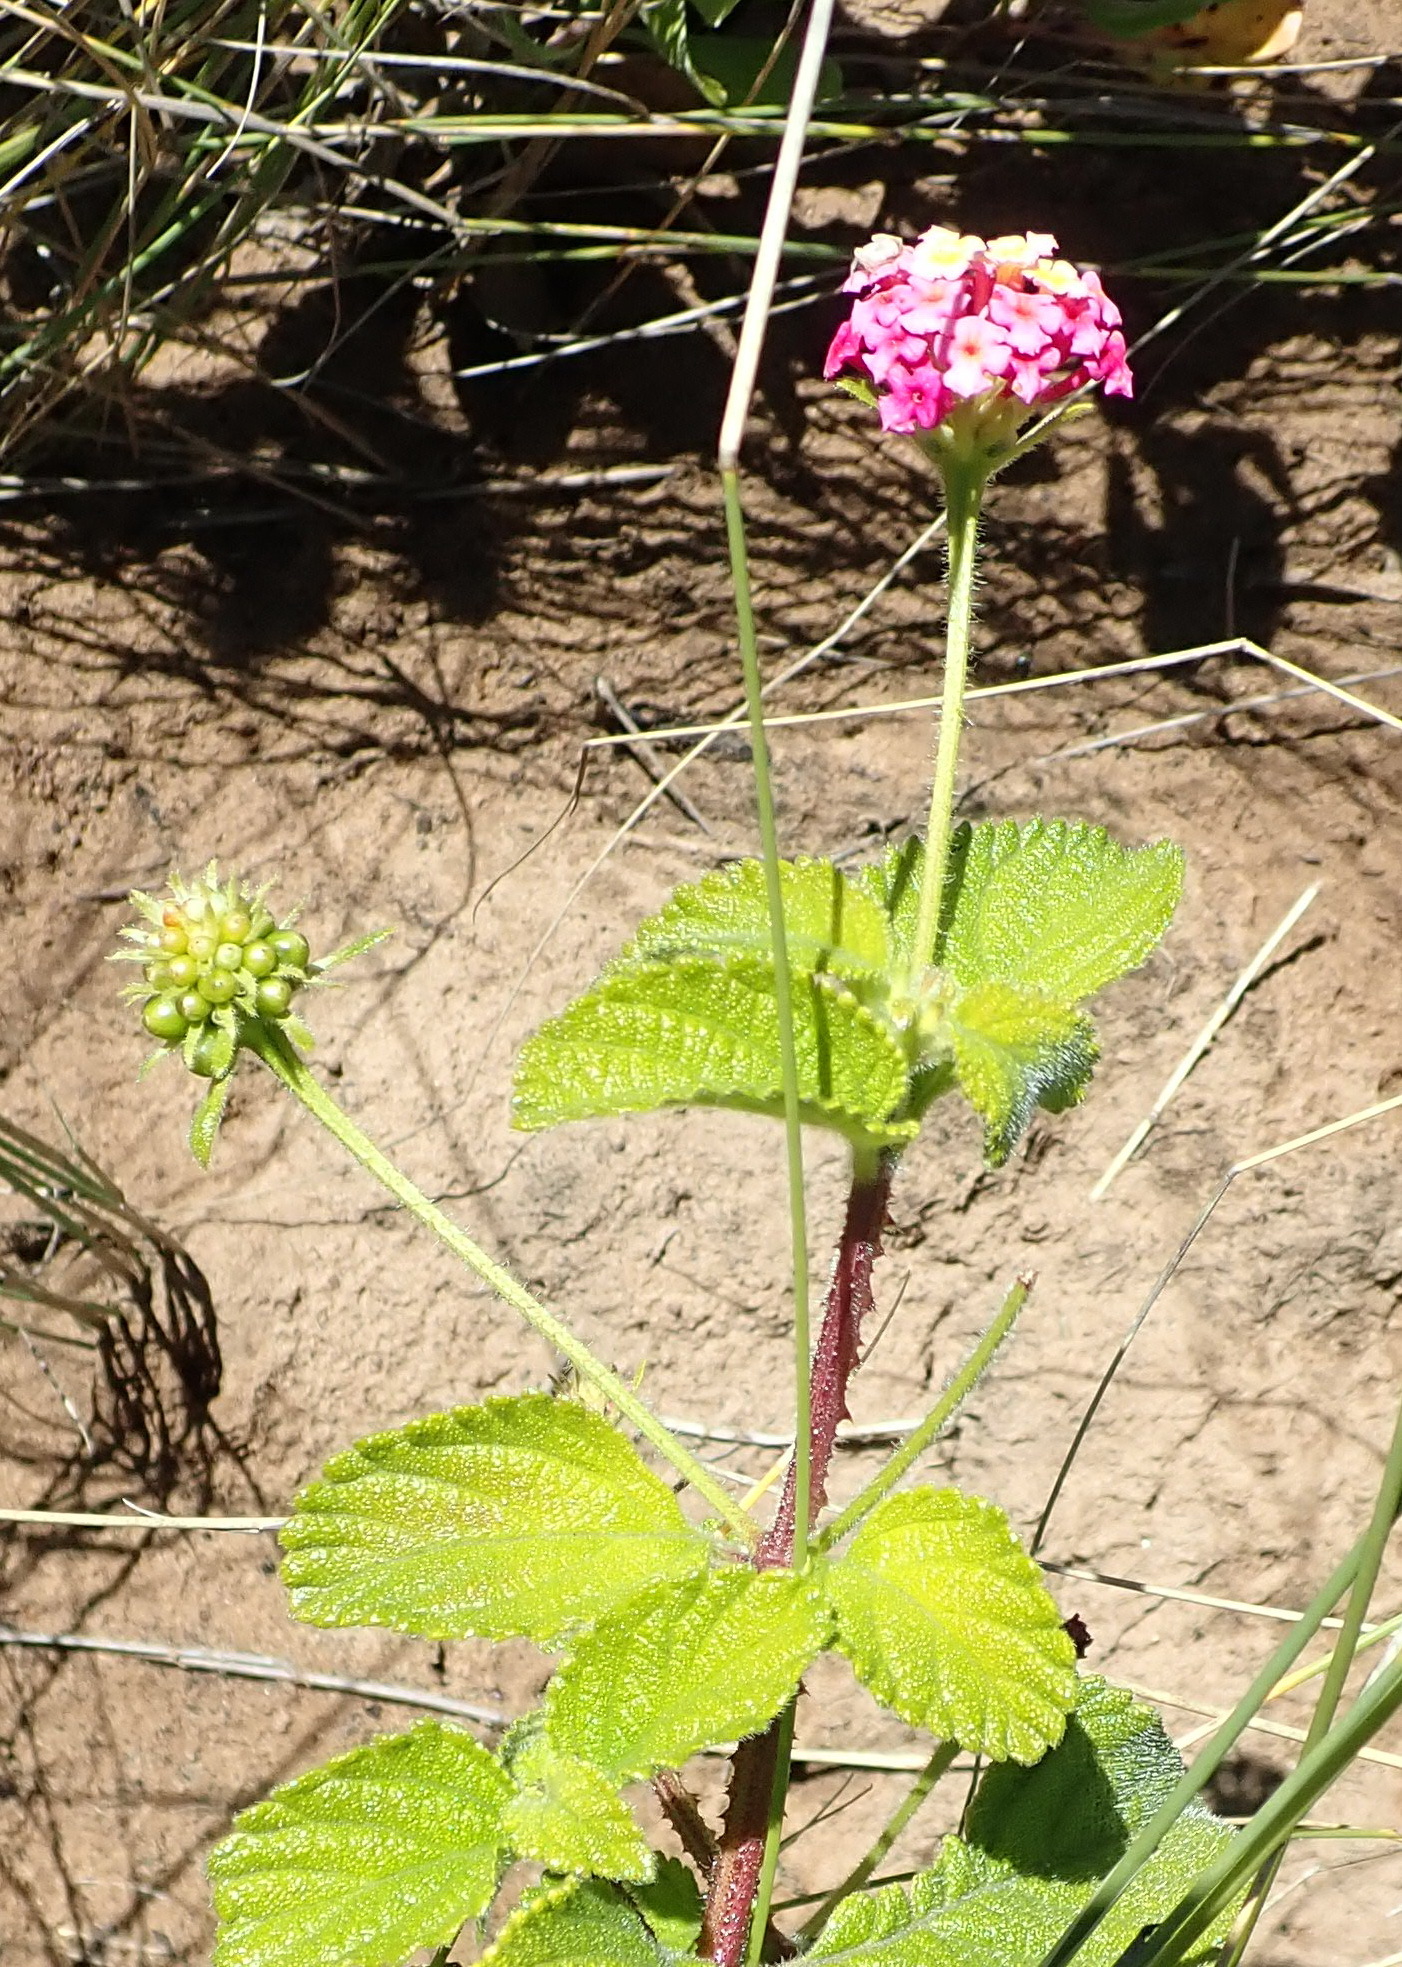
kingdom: Plantae
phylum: Tracheophyta
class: Magnoliopsida
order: Lamiales
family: Verbenaceae
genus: Lantana
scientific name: Lantana camara
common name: Lantana
